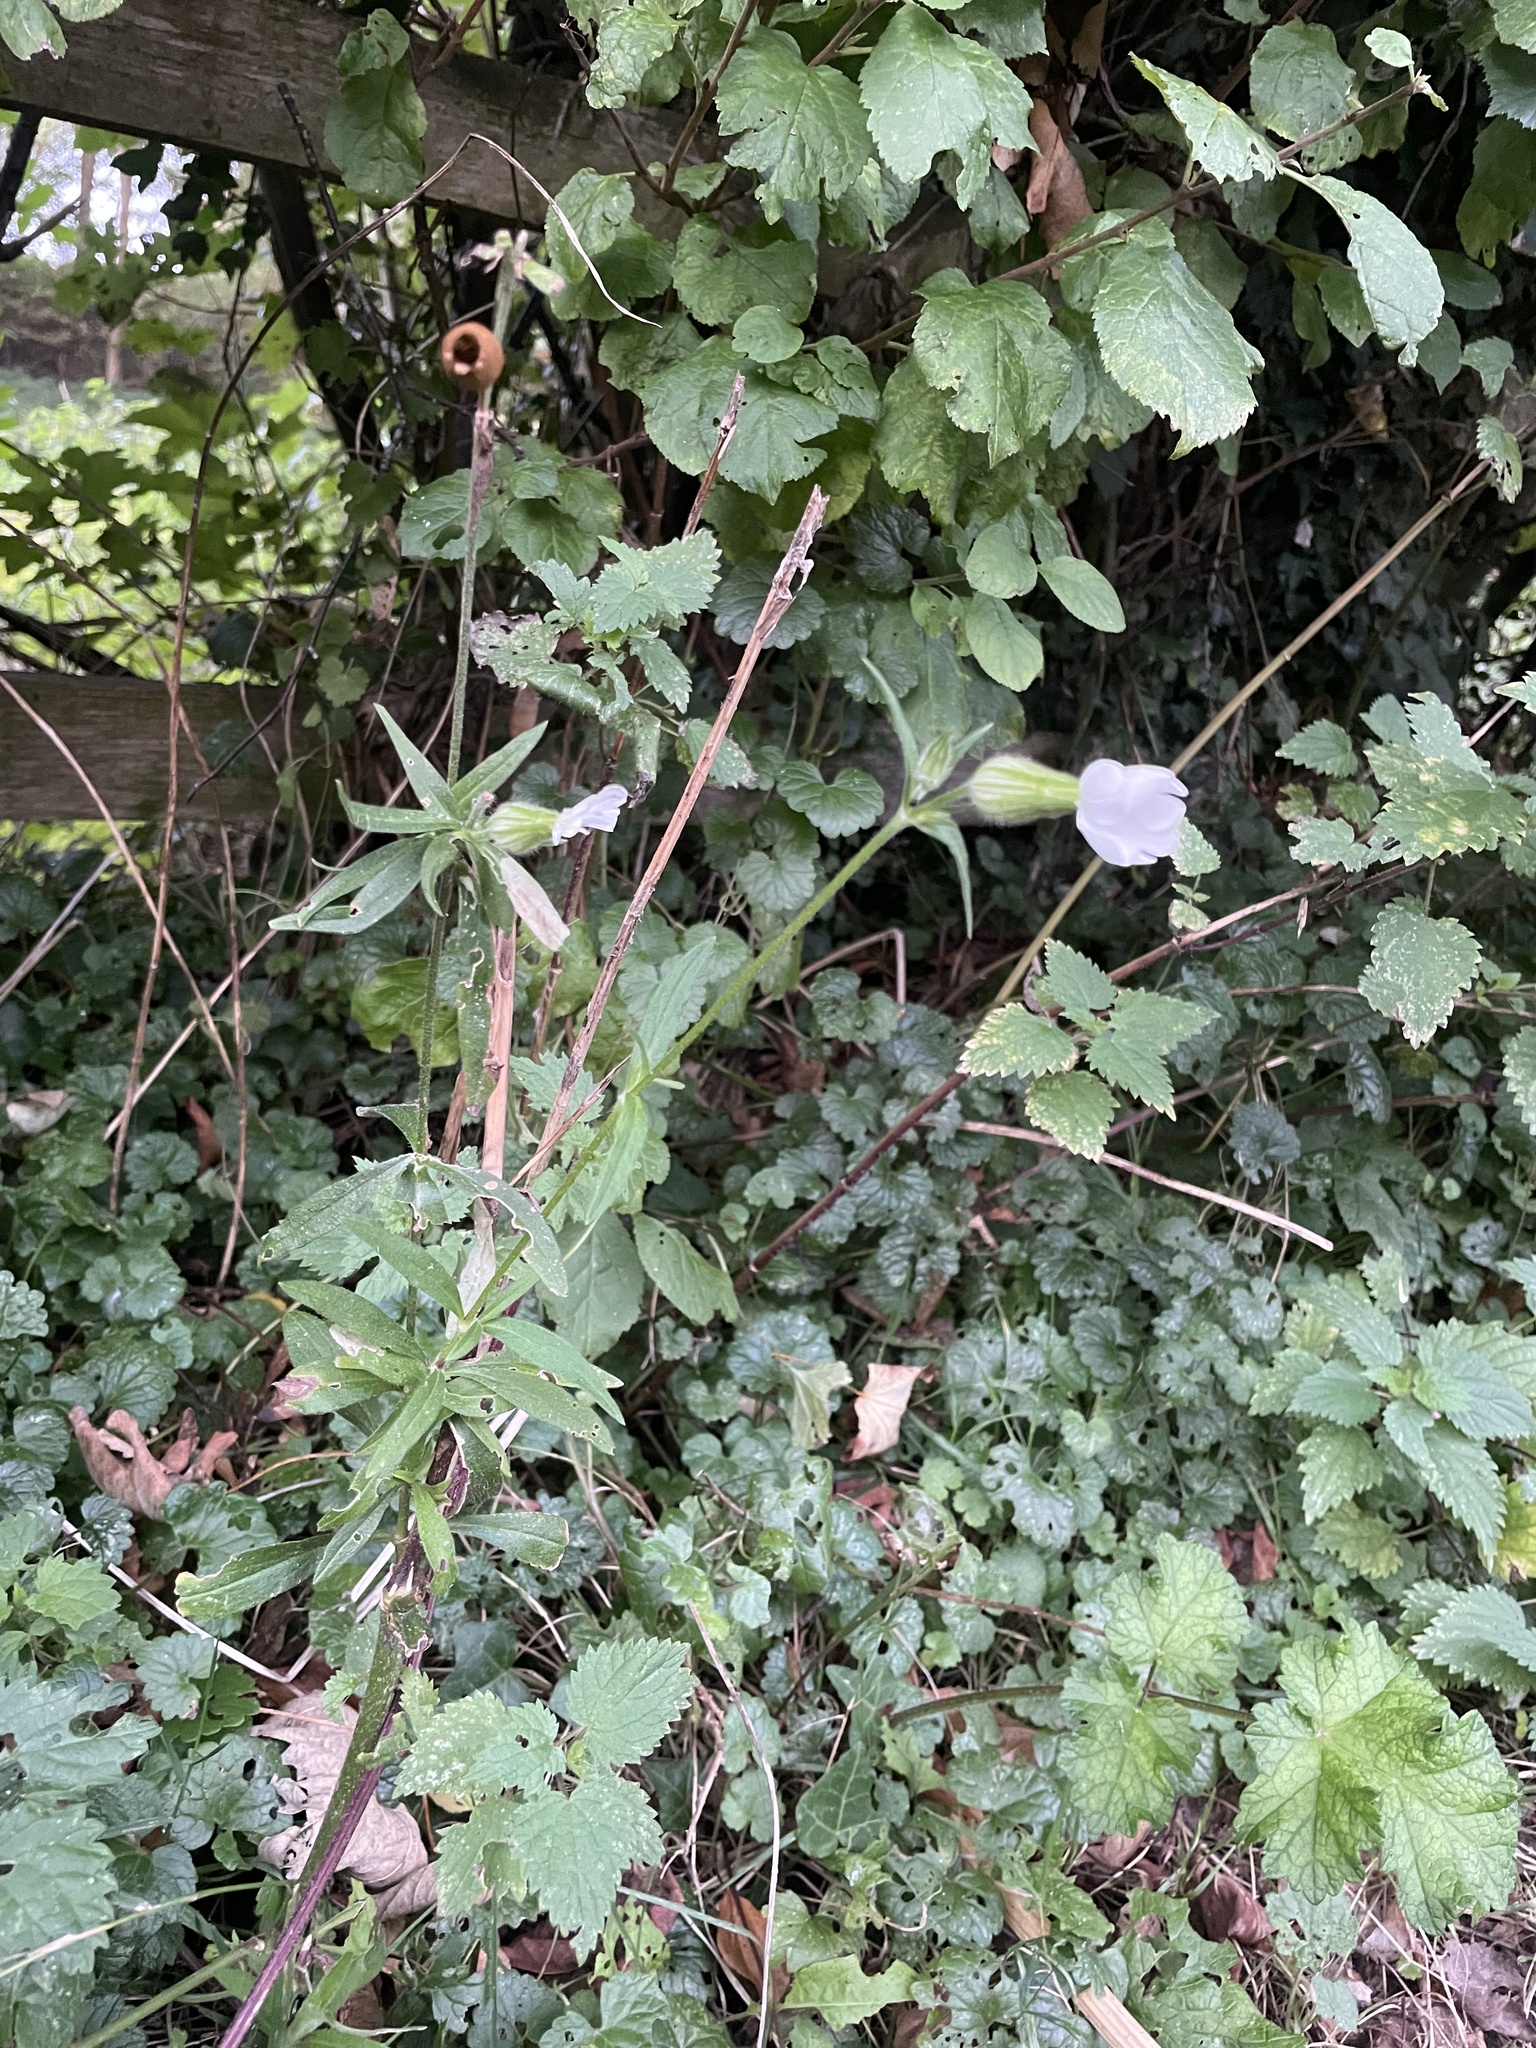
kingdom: Plantae
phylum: Tracheophyta
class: Magnoliopsida
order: Caryophyllales
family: Caryophyllaceae
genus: Silene
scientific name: Silene latifolia
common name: White campion
